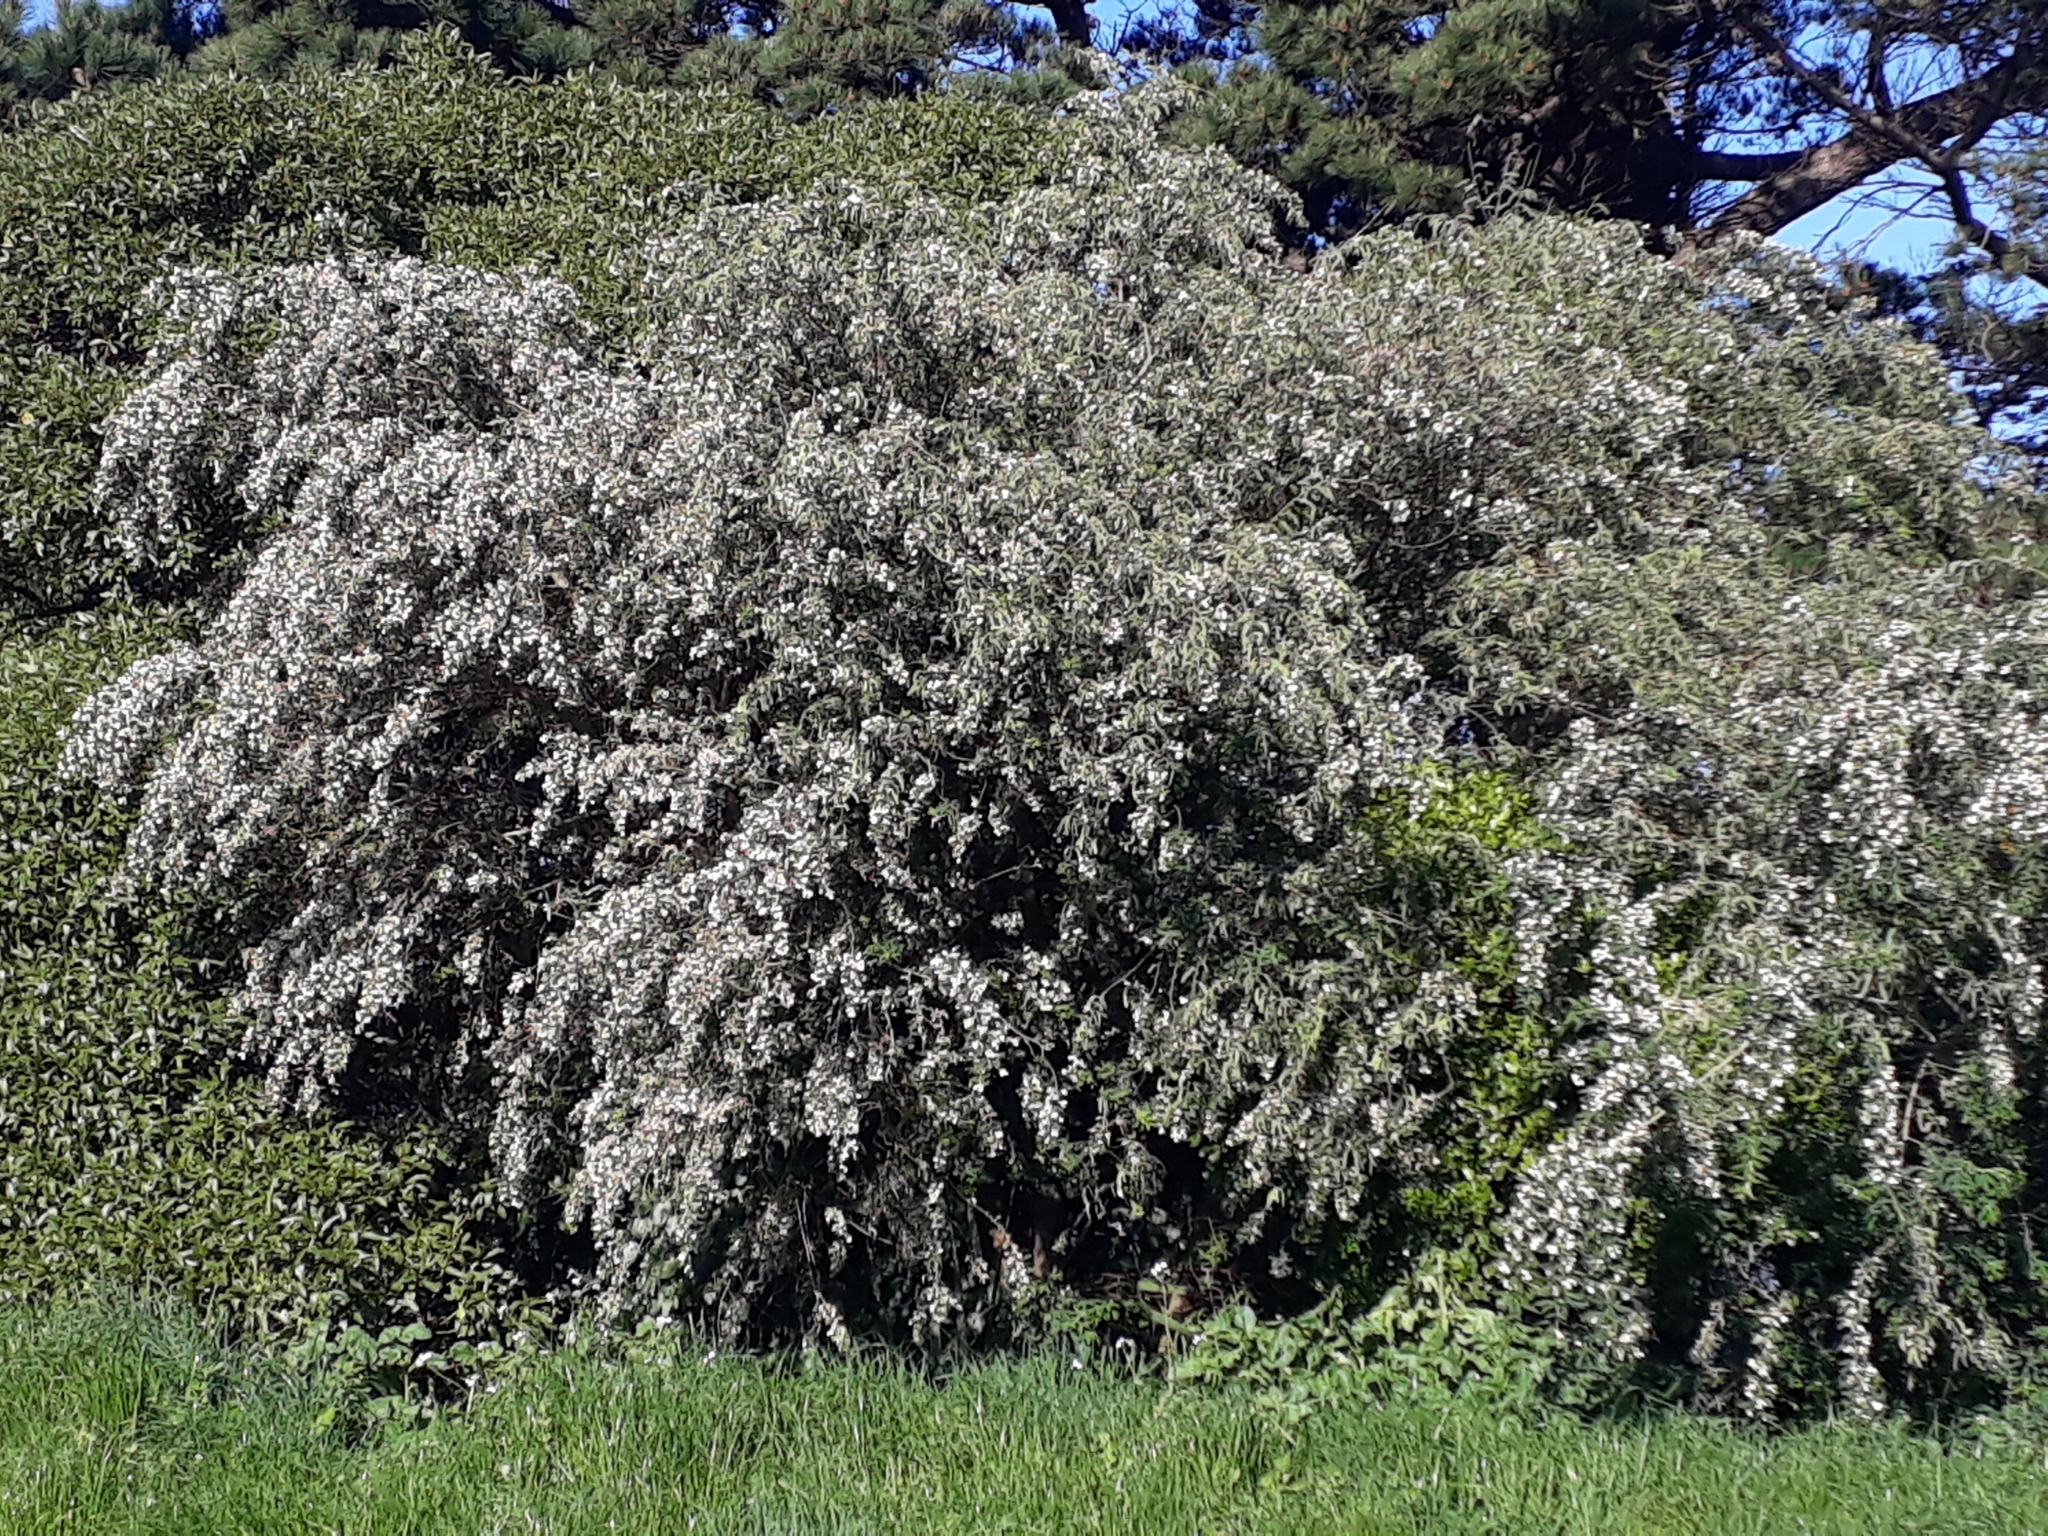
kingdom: Plantae
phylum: Tracheophyta
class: Magnoliopsida
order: Fabales
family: Fabaceae
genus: Chamaecytisus
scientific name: Chamaecytisus prolifer
